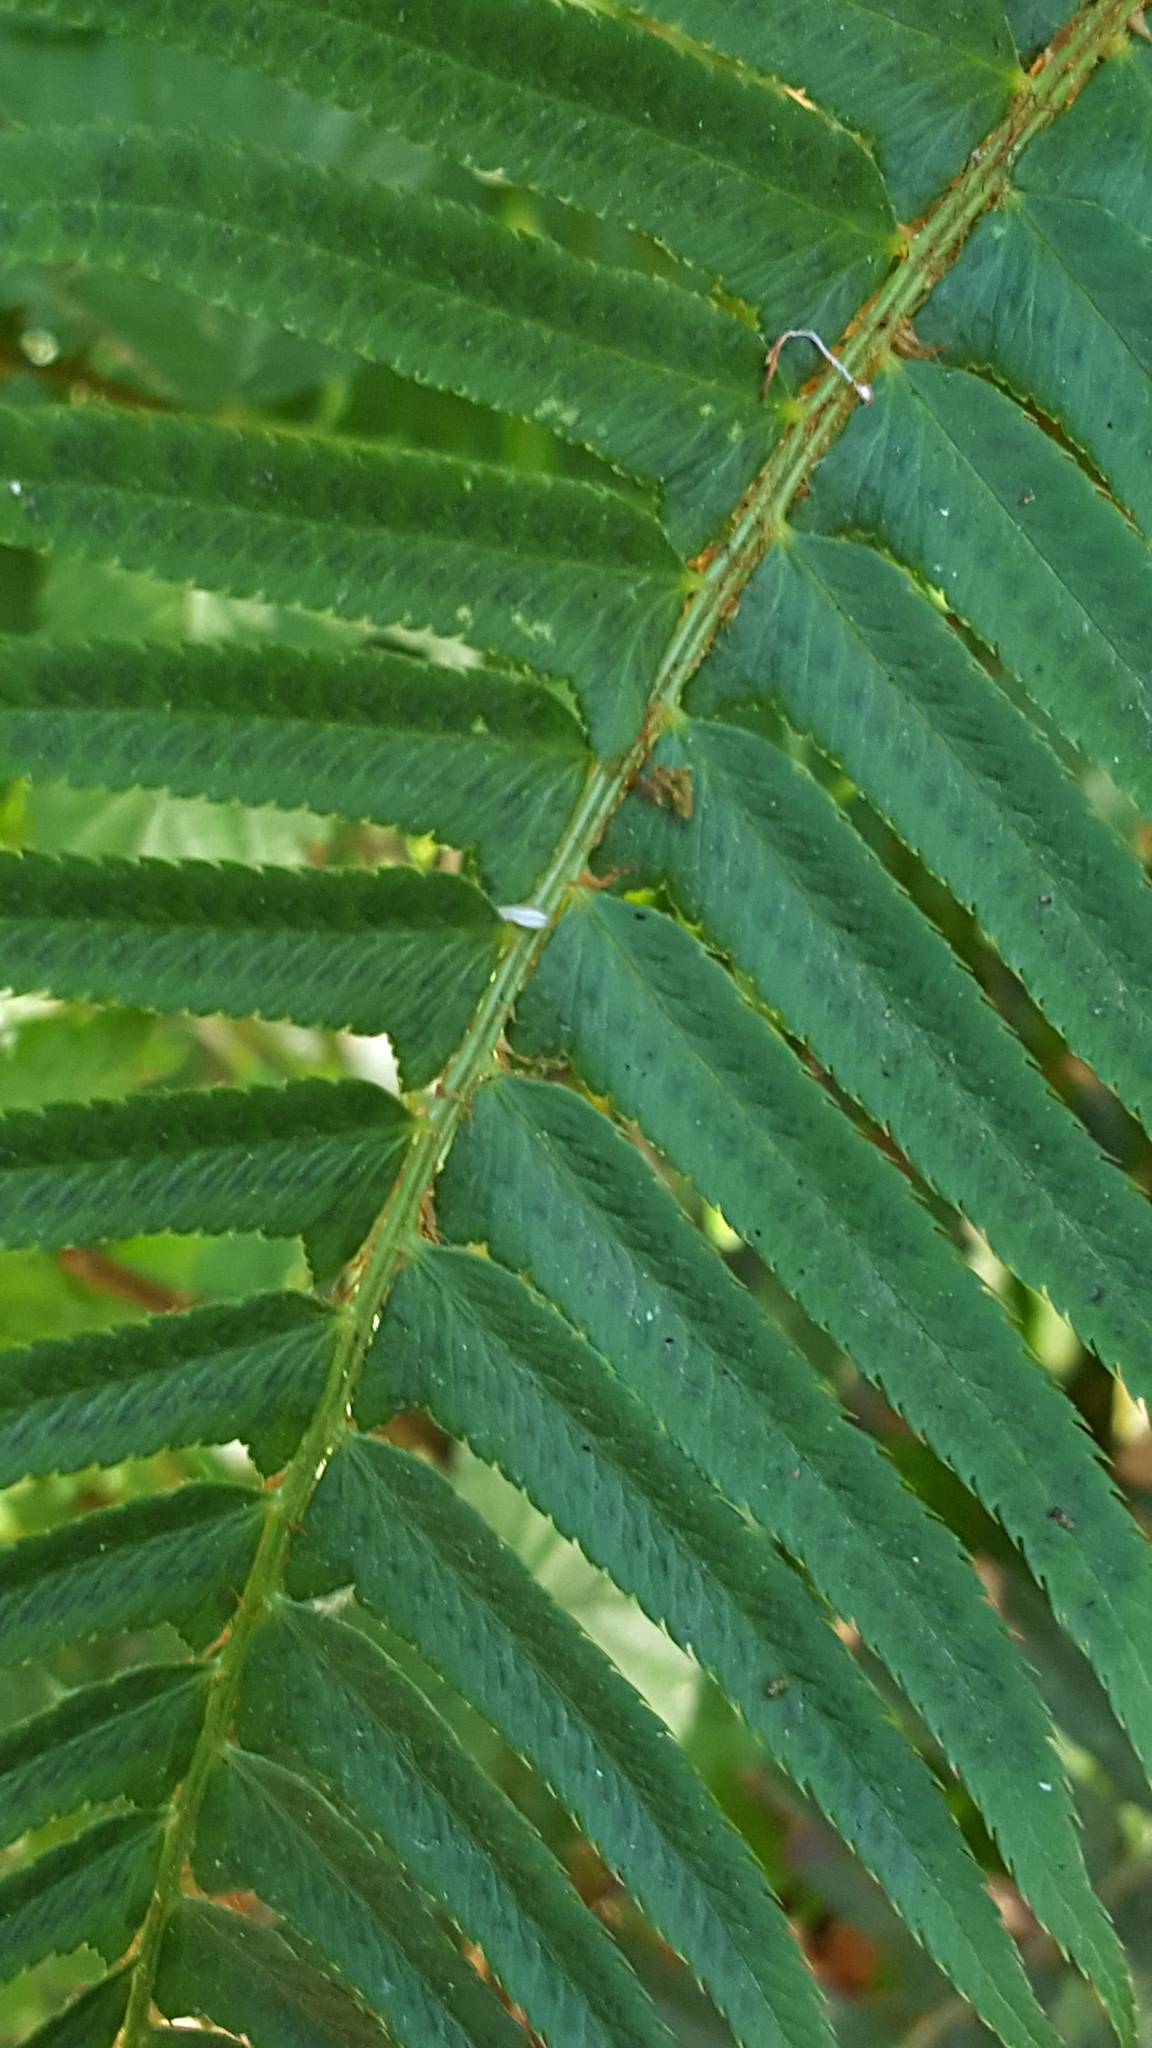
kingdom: Plantae
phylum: Tracheophyta
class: Polypodiopsida
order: Polypodiales
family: Dryopteridaceae
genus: Polystichum
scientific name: Polystichum munitum
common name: Western sword-fern
